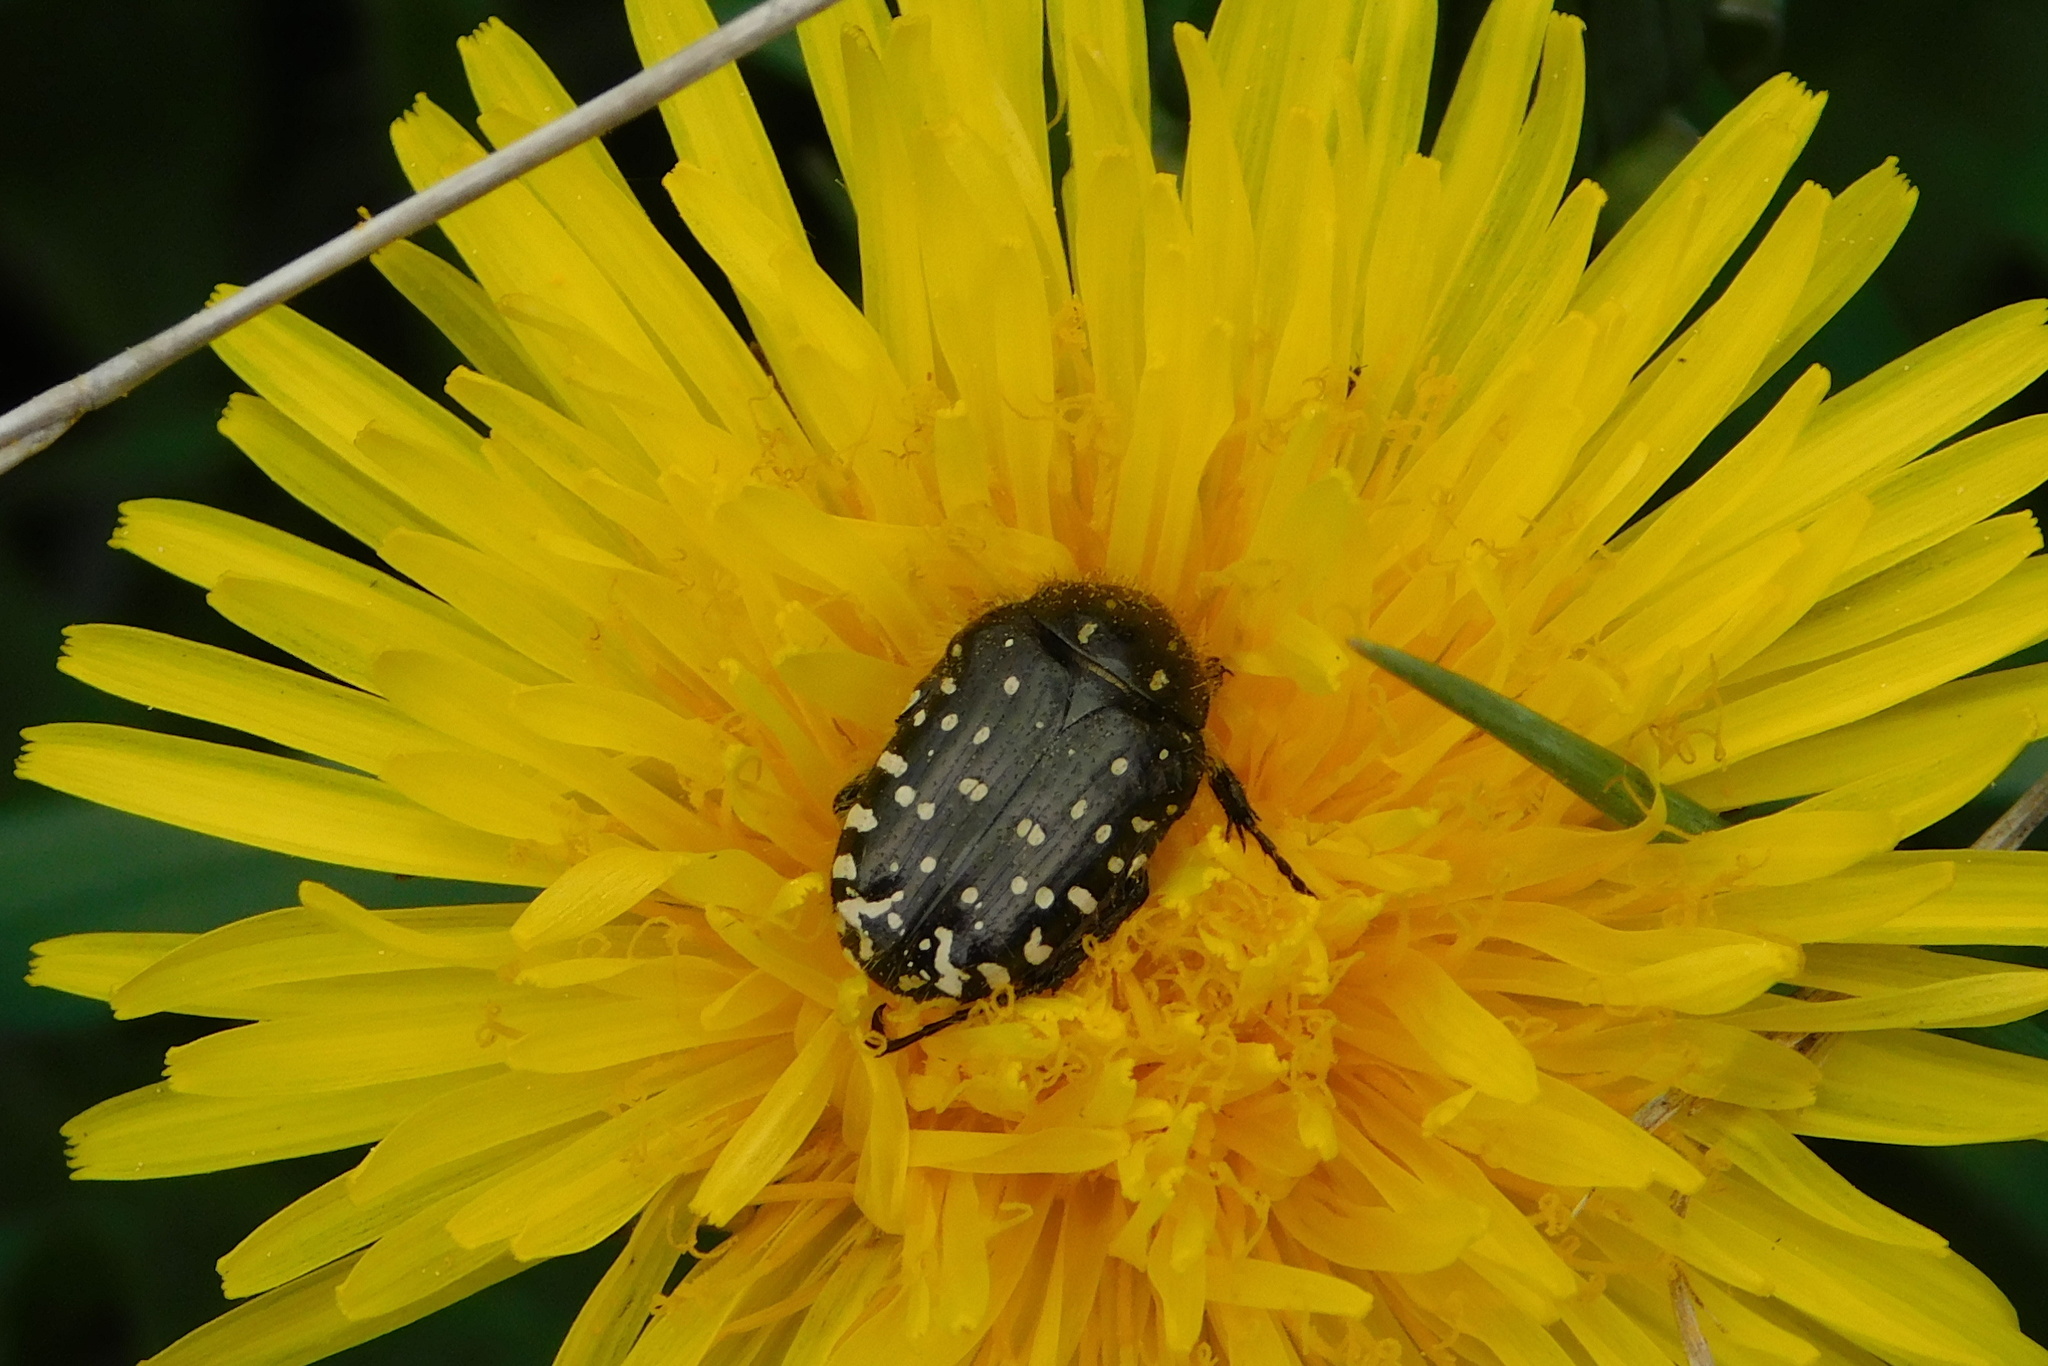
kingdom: Animalia
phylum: Arthropoda
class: Insecta
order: Coleoptera
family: Scarabaeidae
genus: Oxythyrea
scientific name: Oxythyrea funesta
